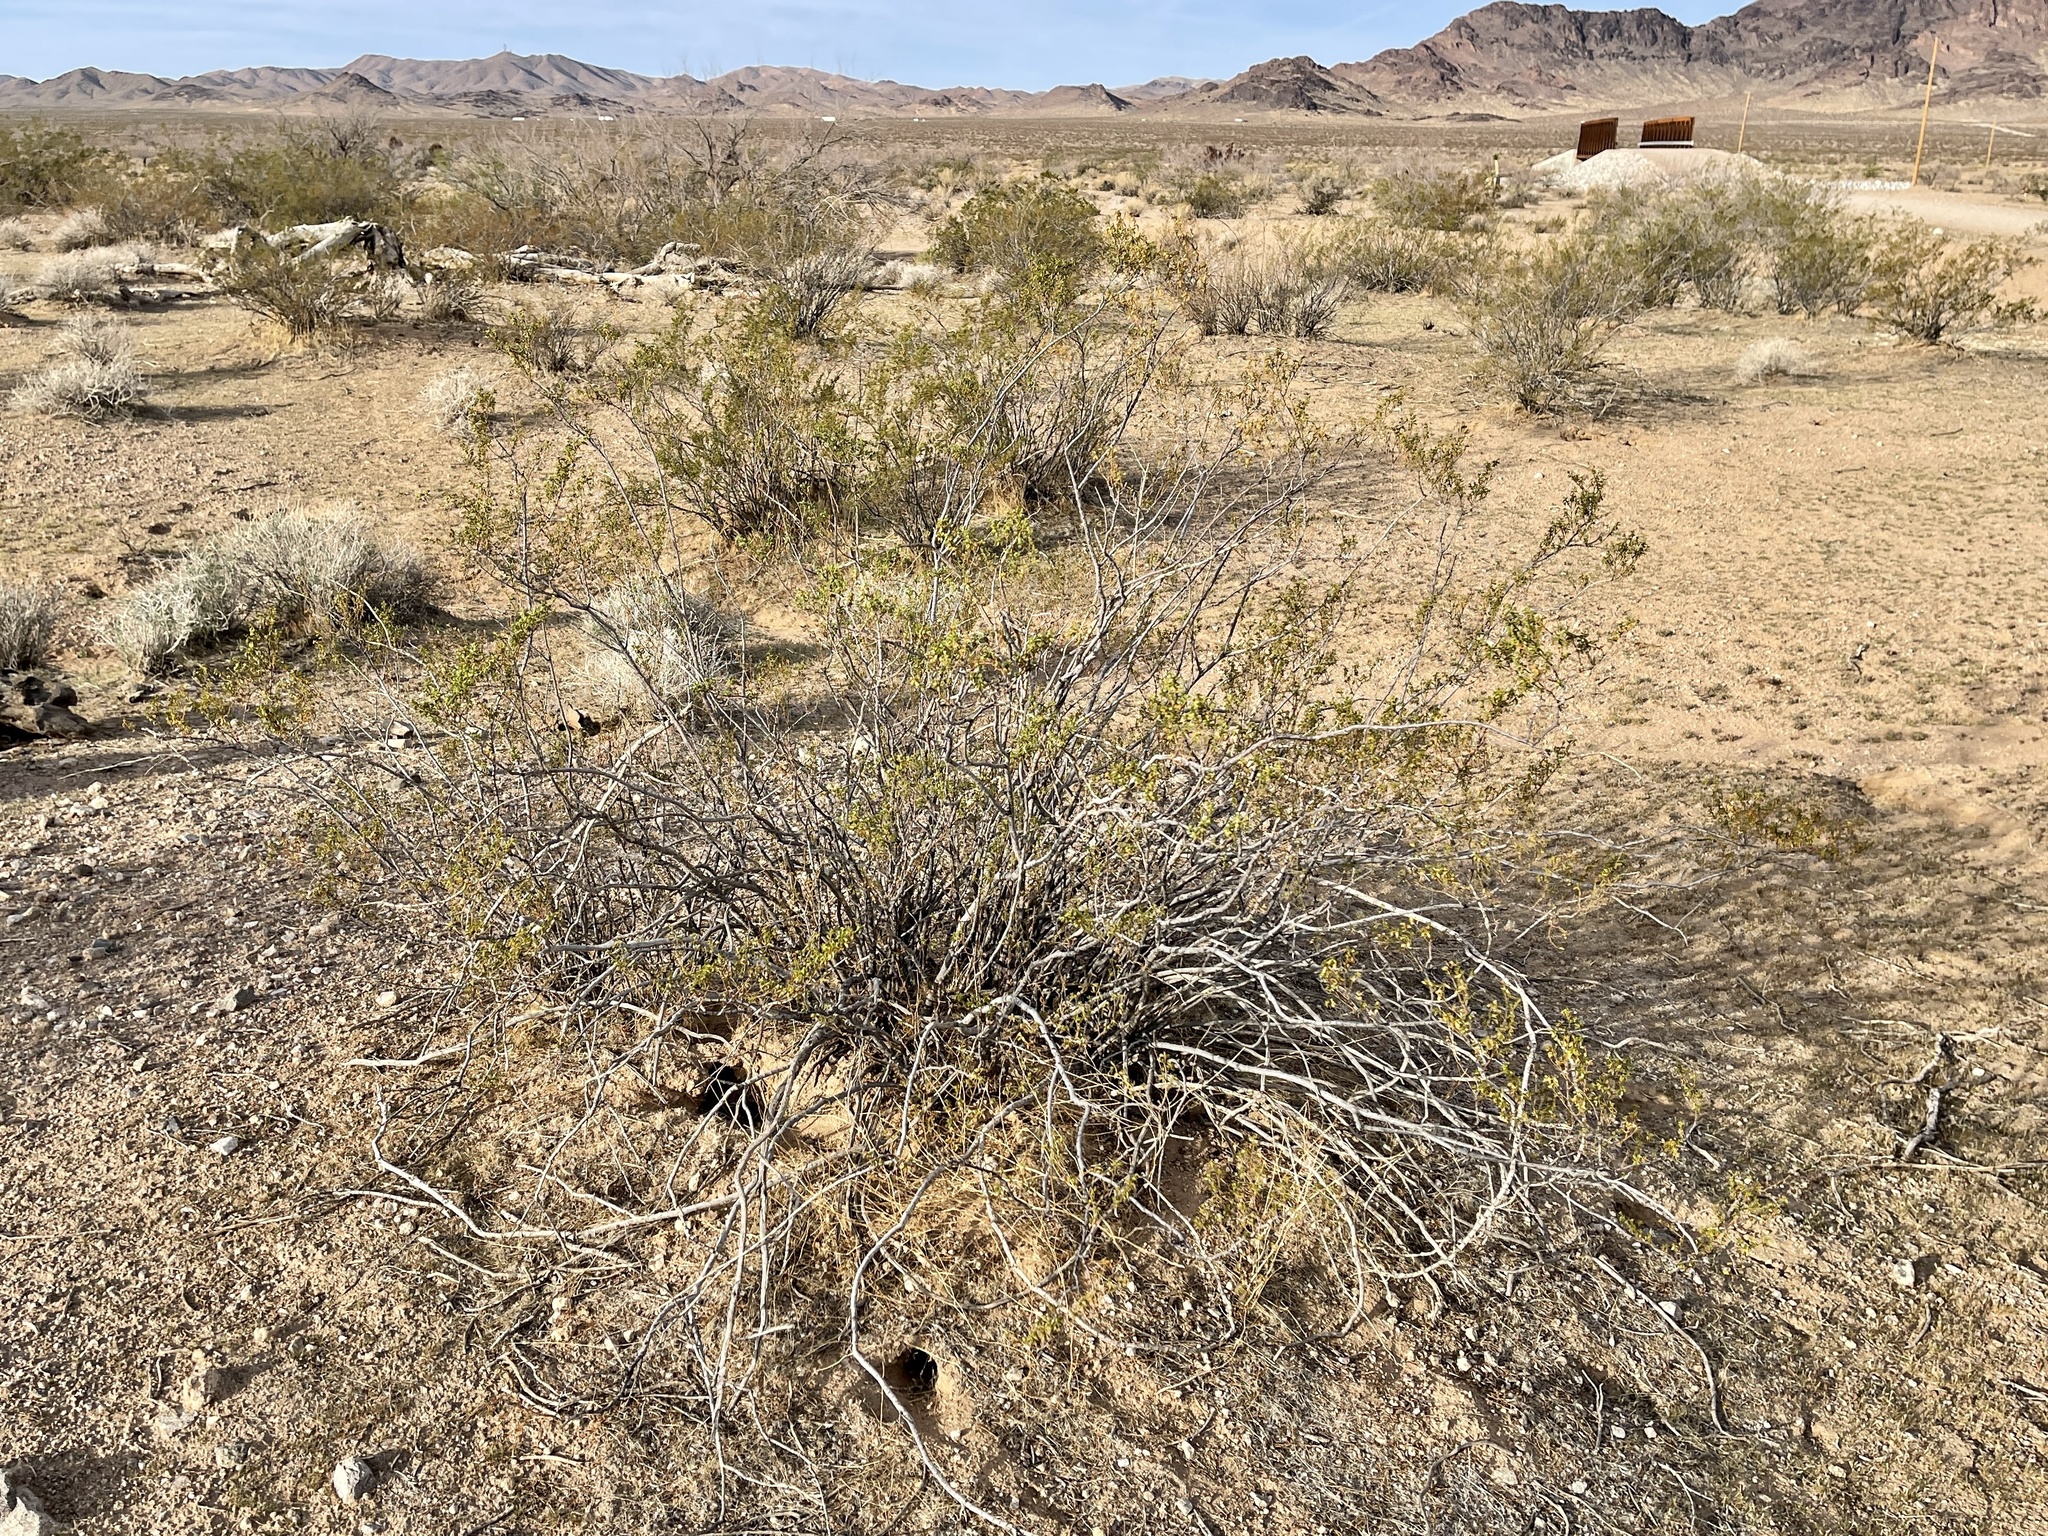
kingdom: Plantae
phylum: Tracheophyta
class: Magnoliopsida
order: Zygophyllales
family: Zygophyllaceae
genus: Larrea
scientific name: Larrea tridentata
